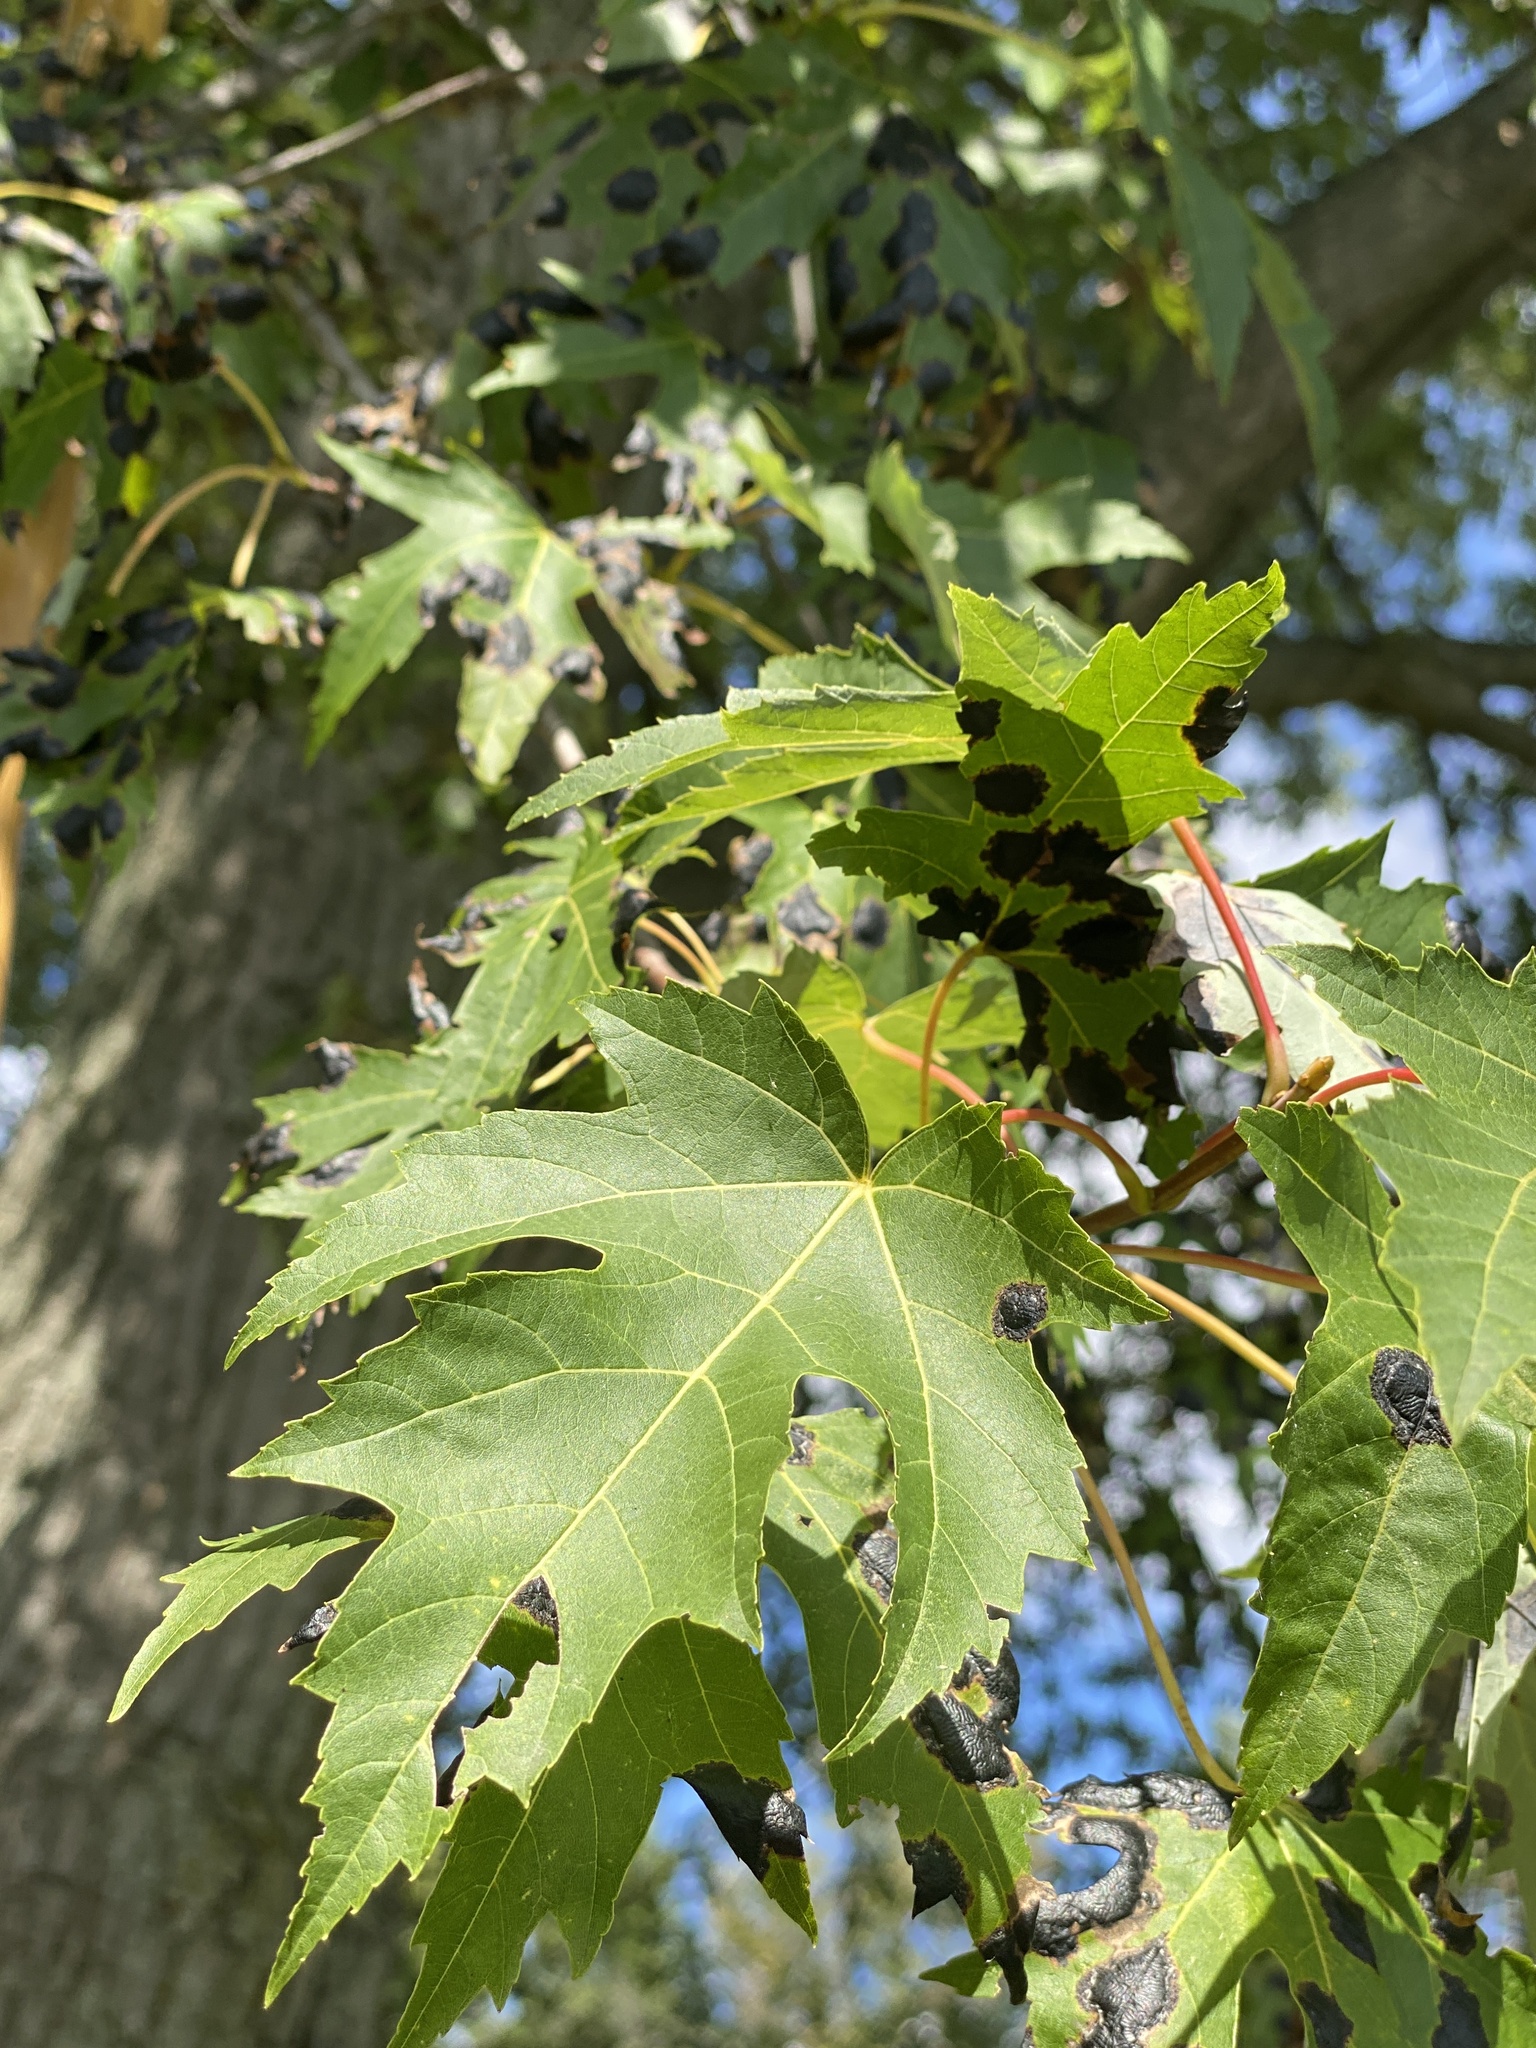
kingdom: Fungi
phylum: Ascomycota
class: Leotiomycetes
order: Rhytismatales
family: Rhytismataceae
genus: Rhytisma
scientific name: Rhytisma americanum
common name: American tar spot
